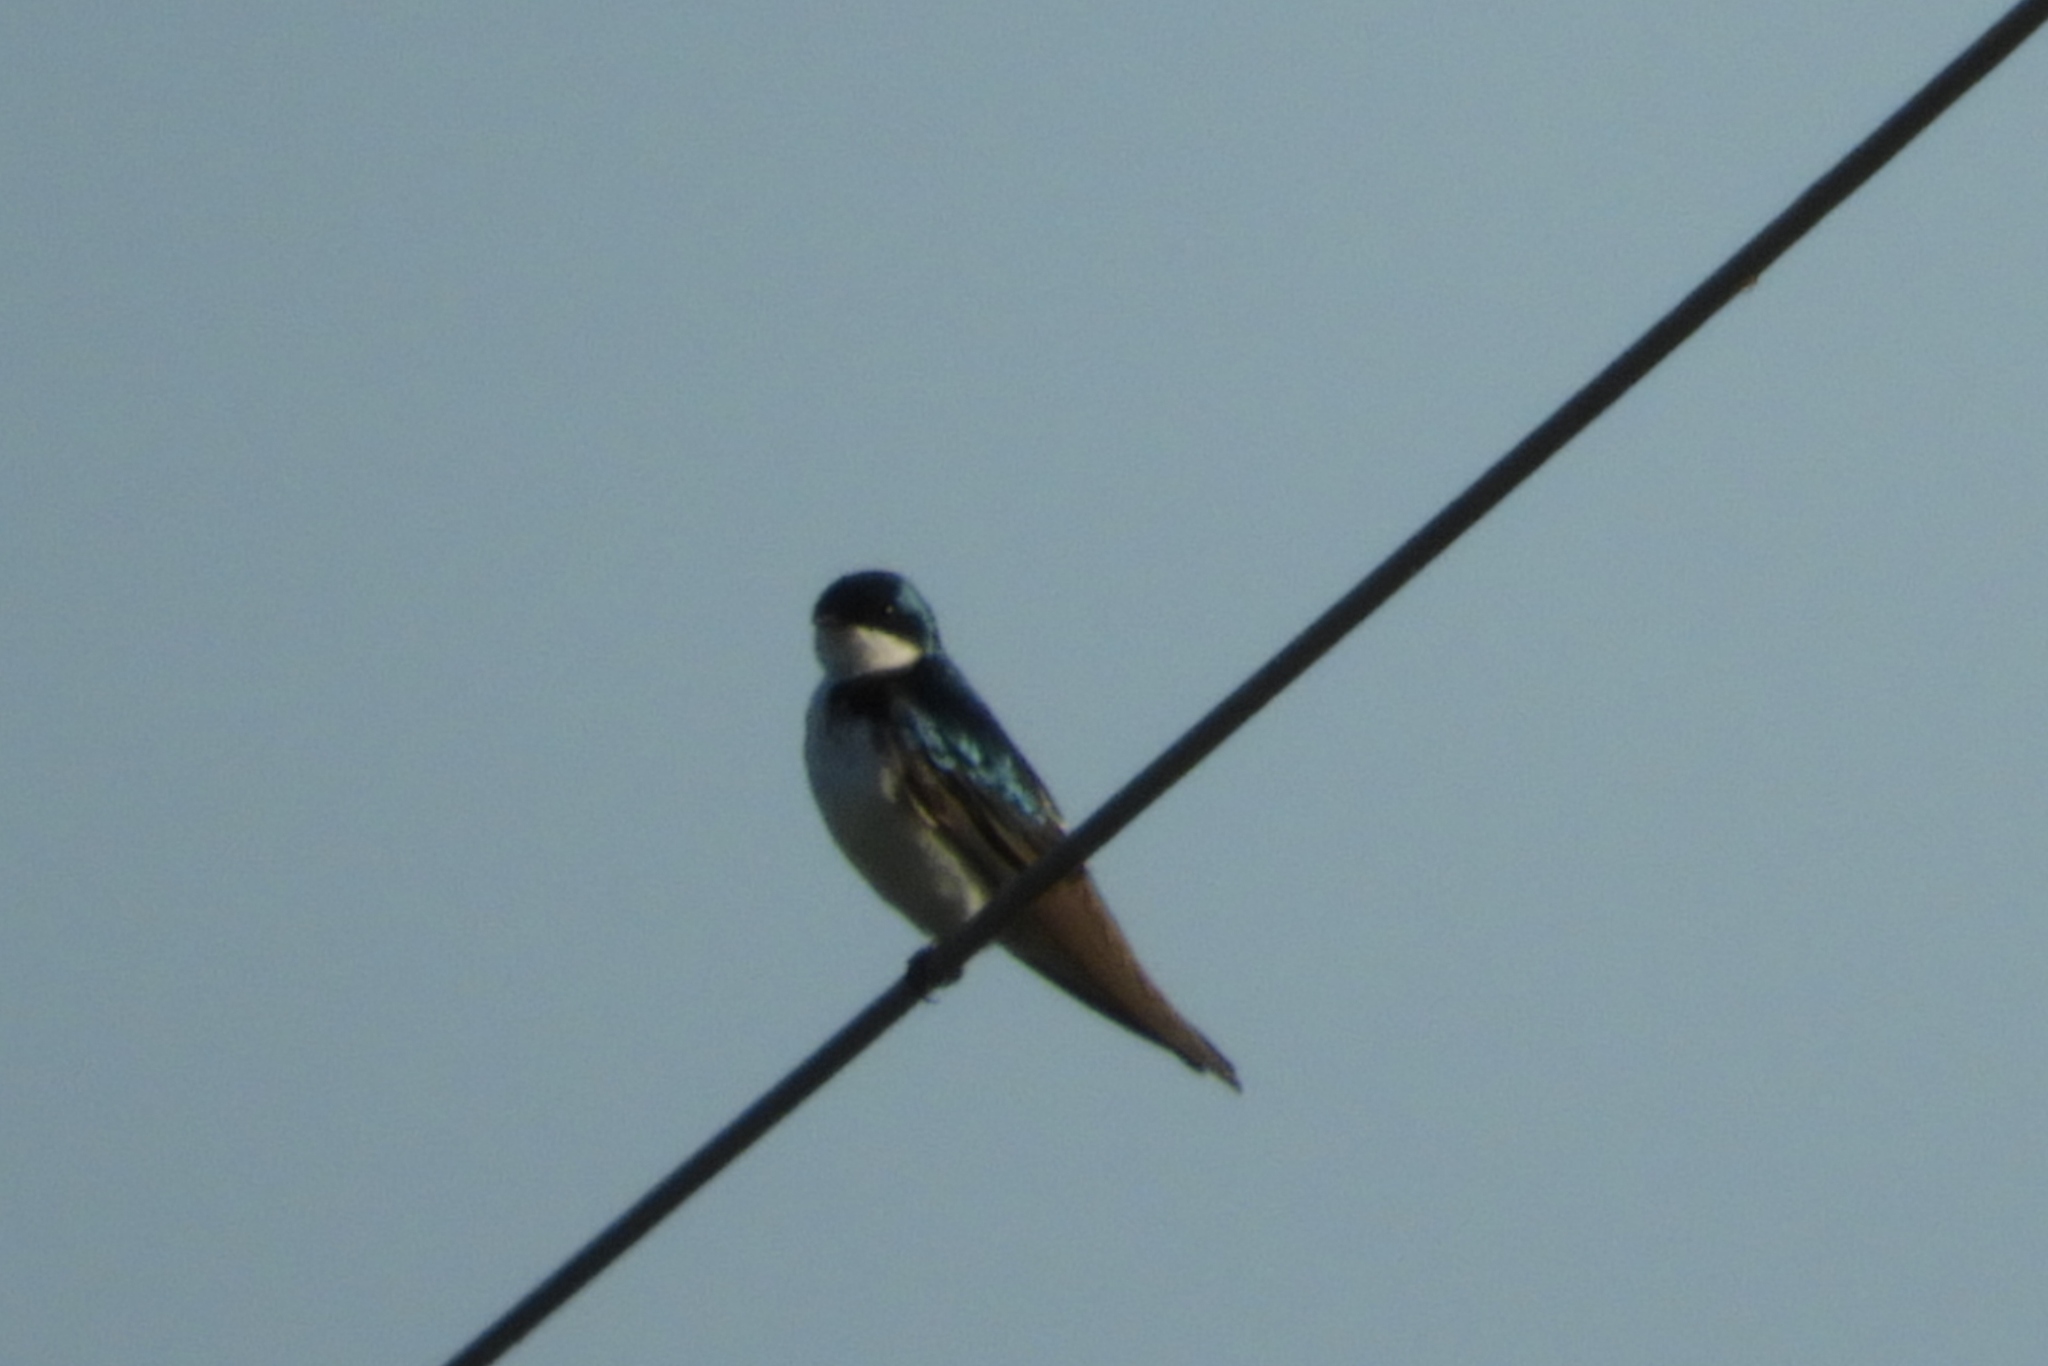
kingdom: Animalia
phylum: Chordata
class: Aves
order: Passeriformes
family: Hirundinidae
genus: Tachycineta
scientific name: Tachycineta bicolor
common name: Tree swallow
